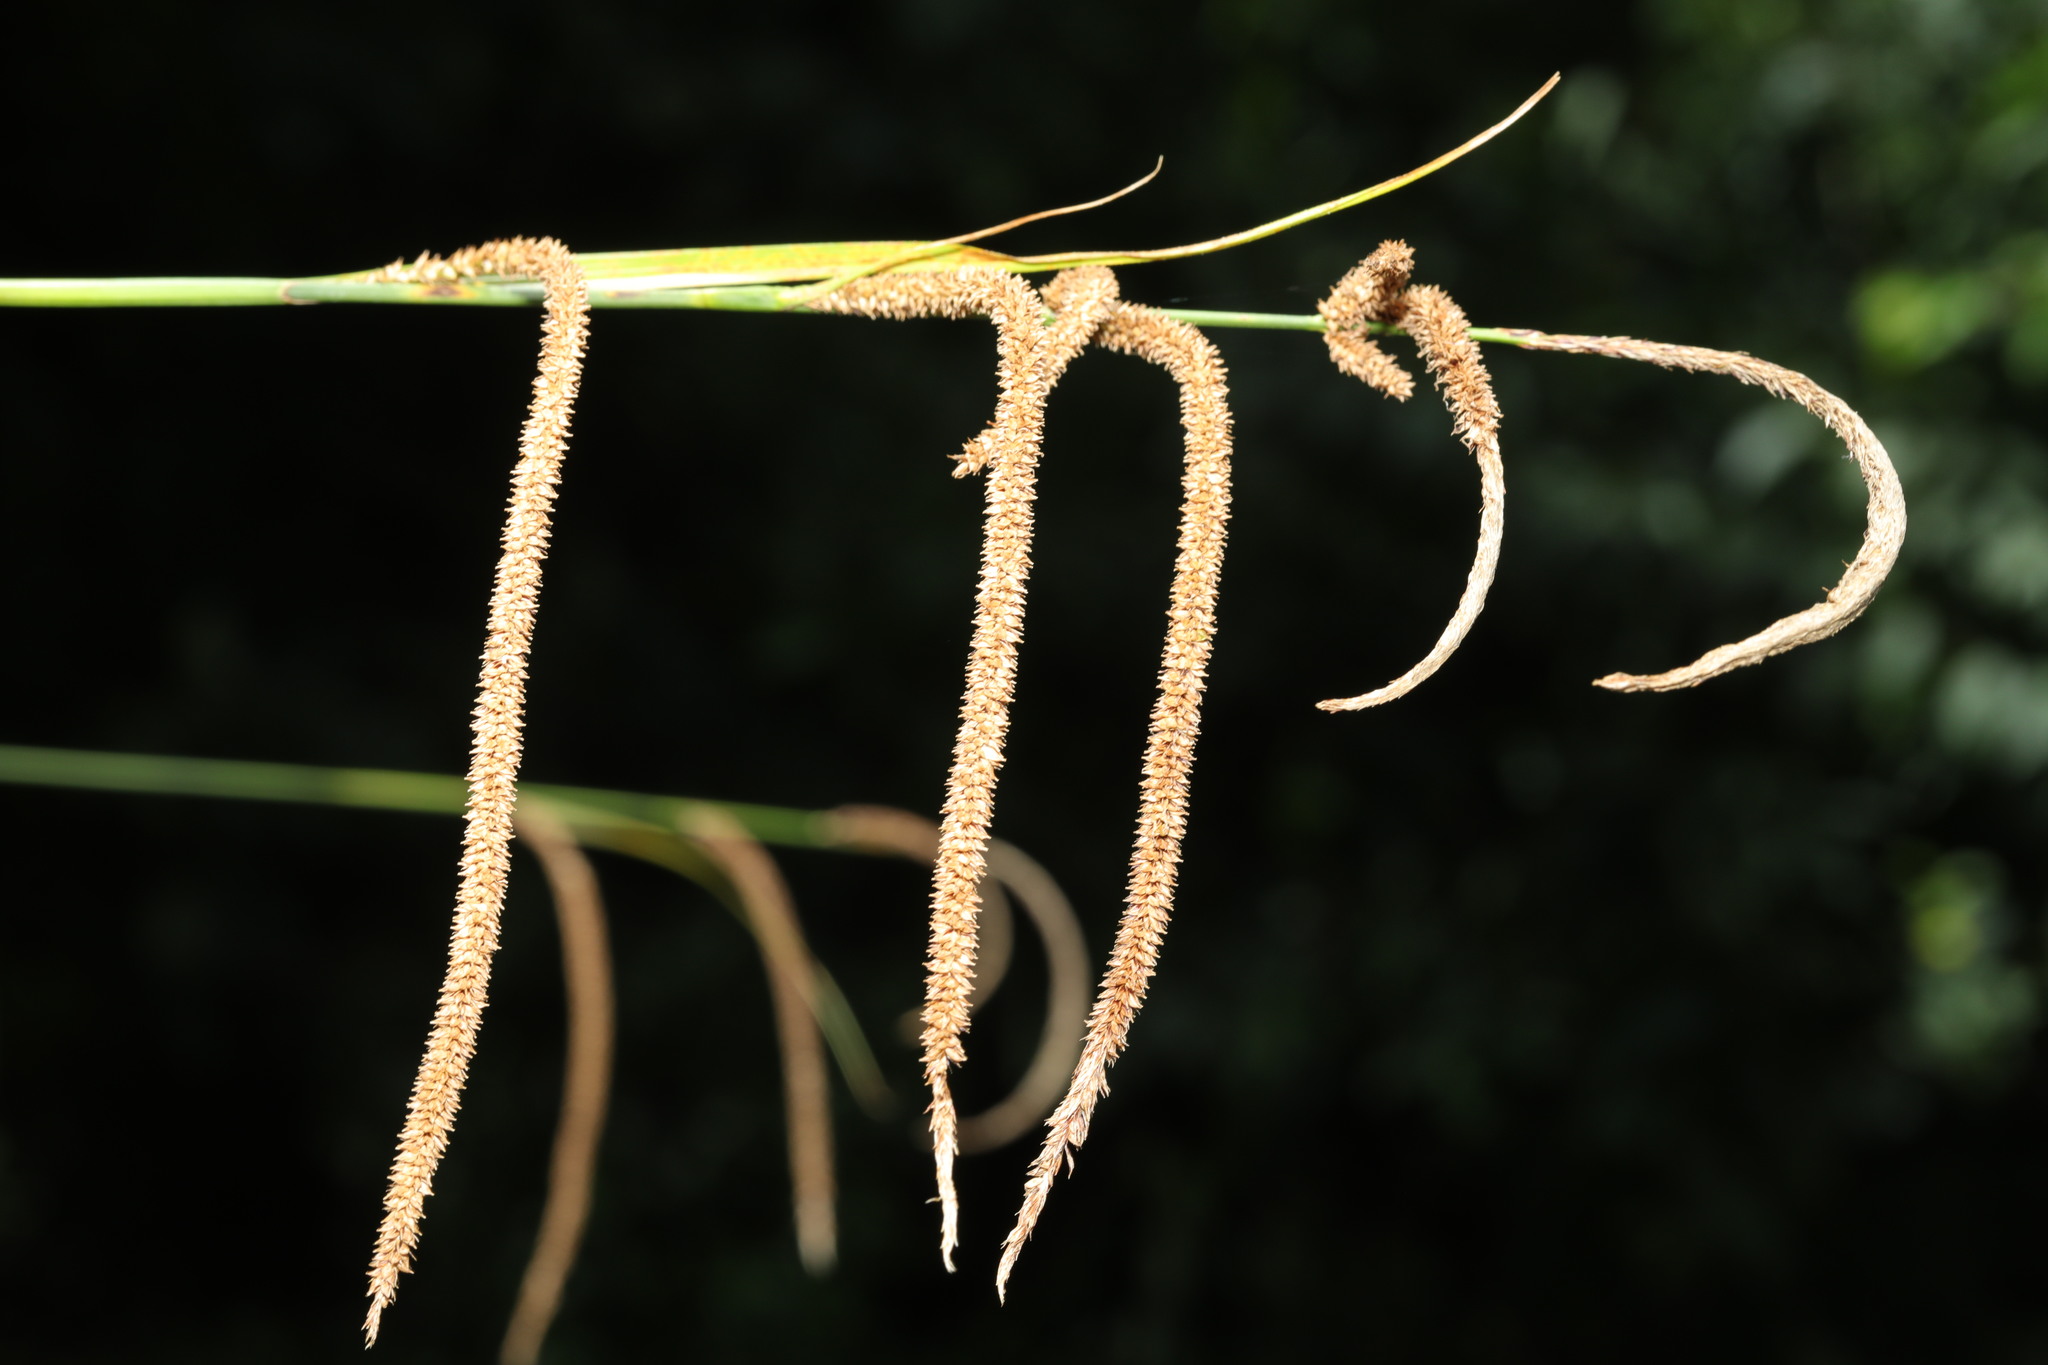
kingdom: Plantae
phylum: Tracheophyta
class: Liliopsida
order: Poales
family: Cyperaceae
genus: Carex
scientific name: Carex pendula
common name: Pendulous sedge
